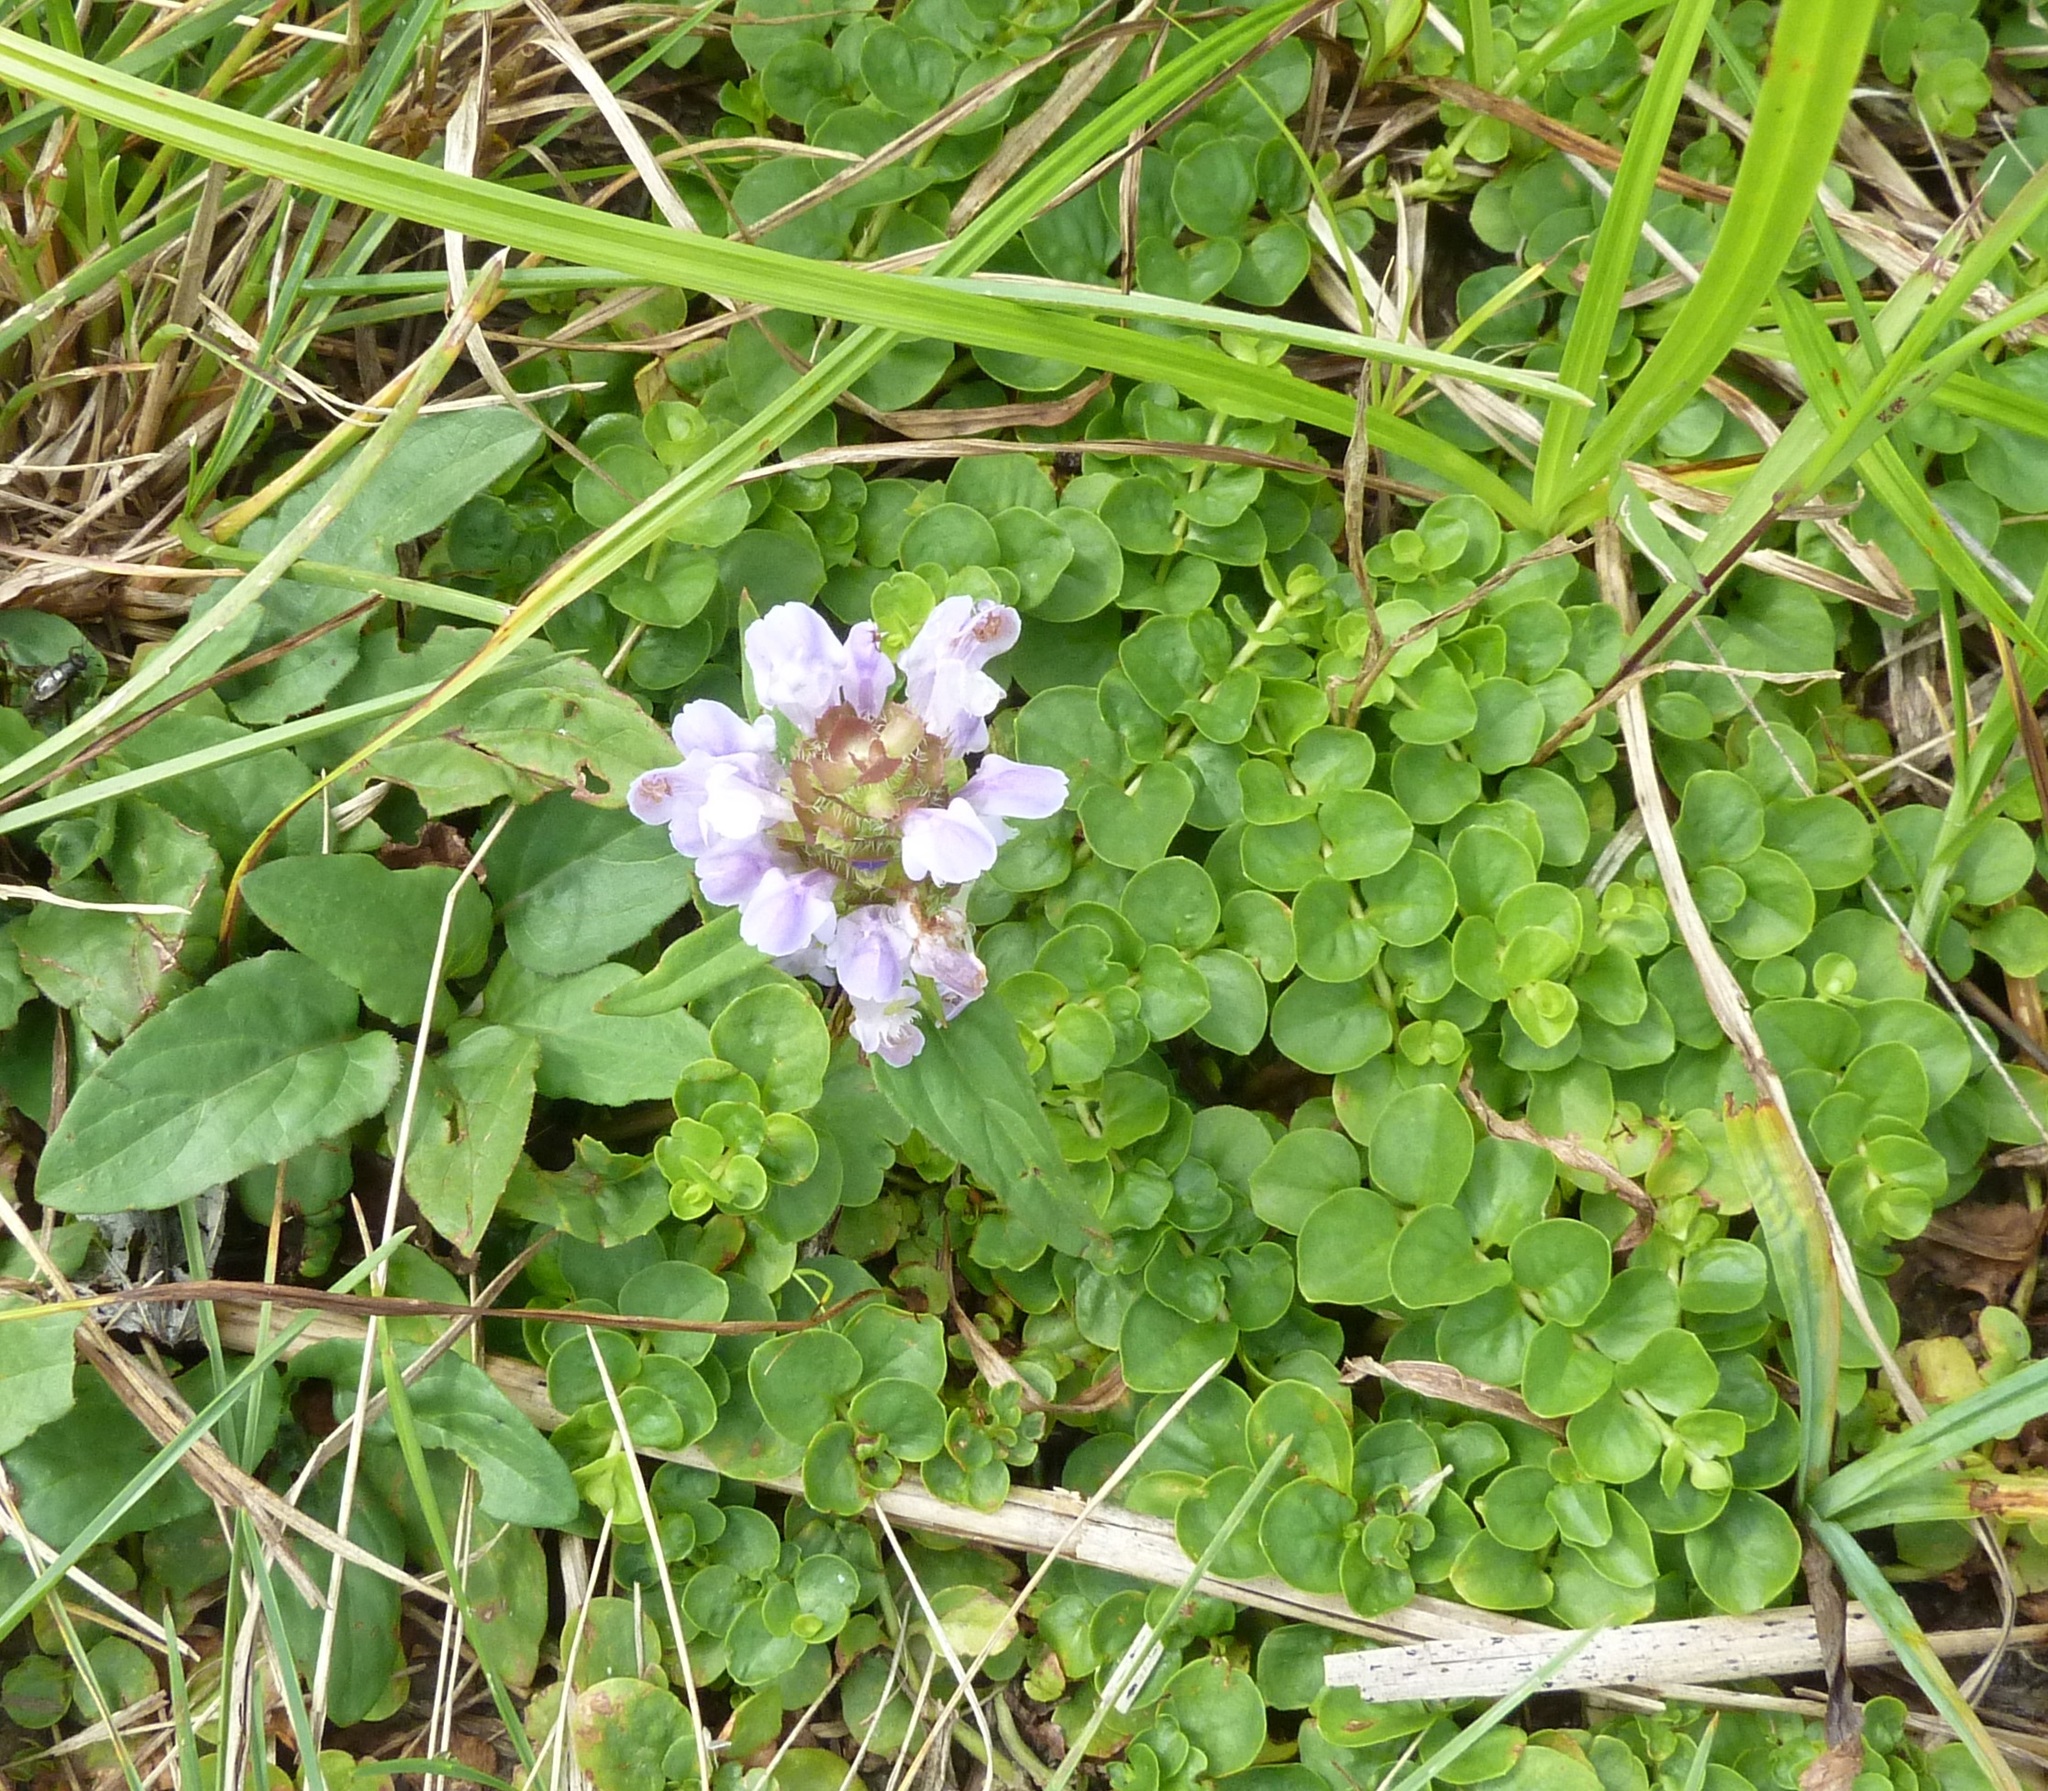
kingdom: Plantae
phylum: Tracheophyta
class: Magnoliopsida
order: Lamiales
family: Lamiaceae
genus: Prunella
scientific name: Prunella vulgaris
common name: Heal-all
